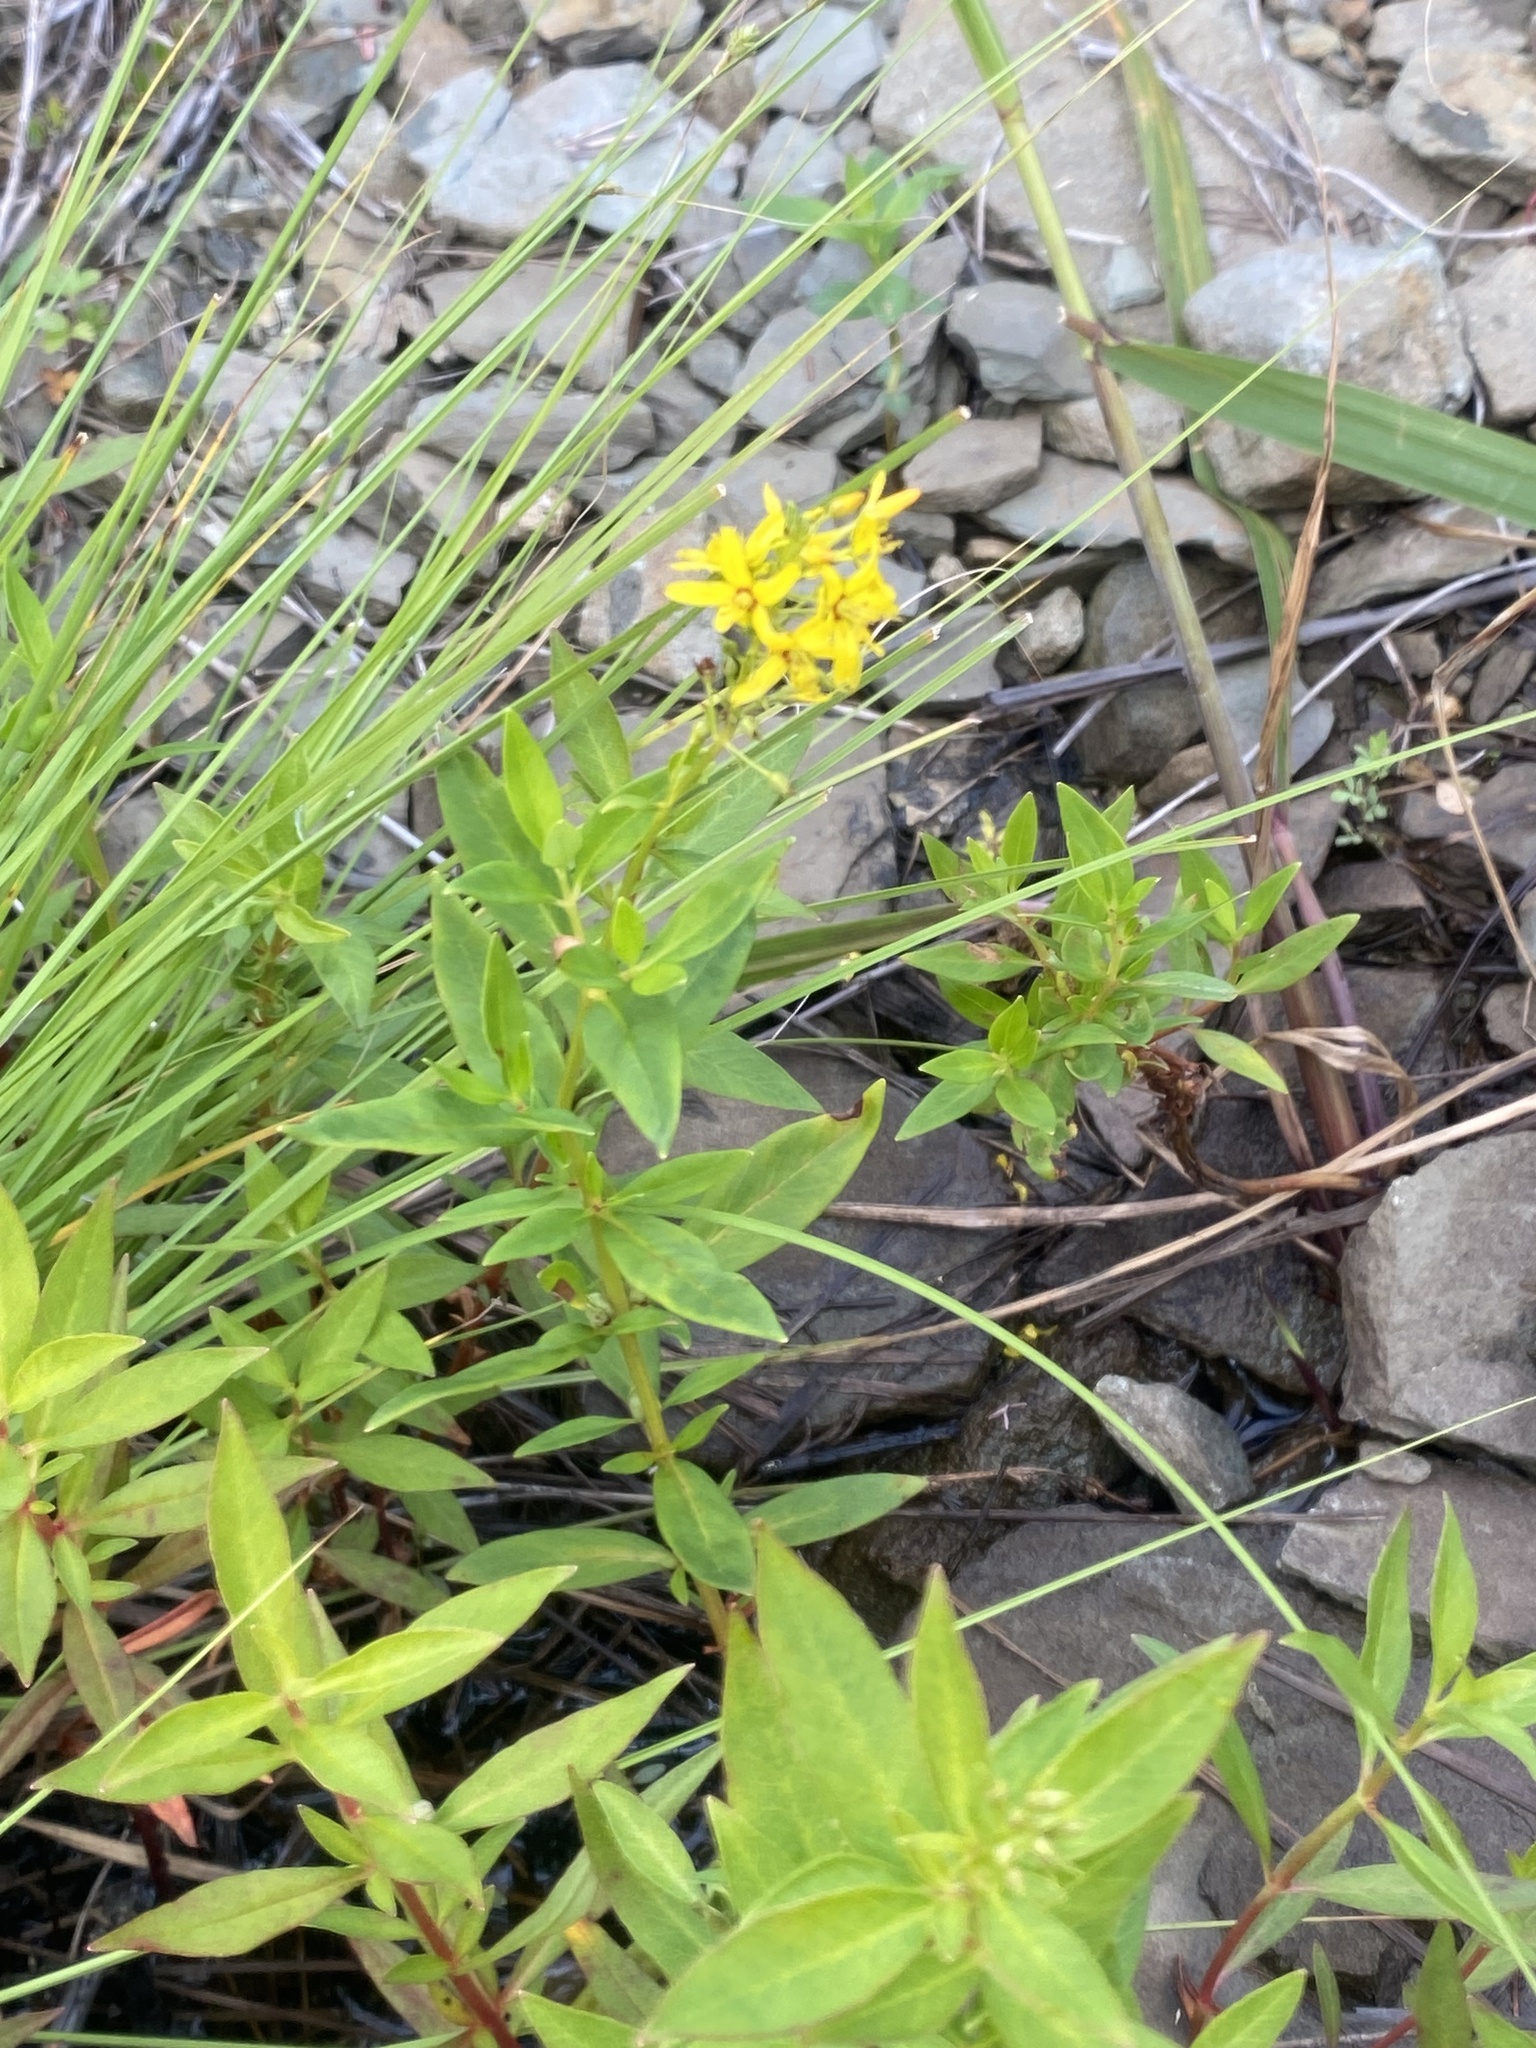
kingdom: Plantae
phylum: Tracheophyta
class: Magnoliopsida
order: Ericales
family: Primulaceae
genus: Lysimachia
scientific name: Lysimachia terrestris
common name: Lake loosestrife
